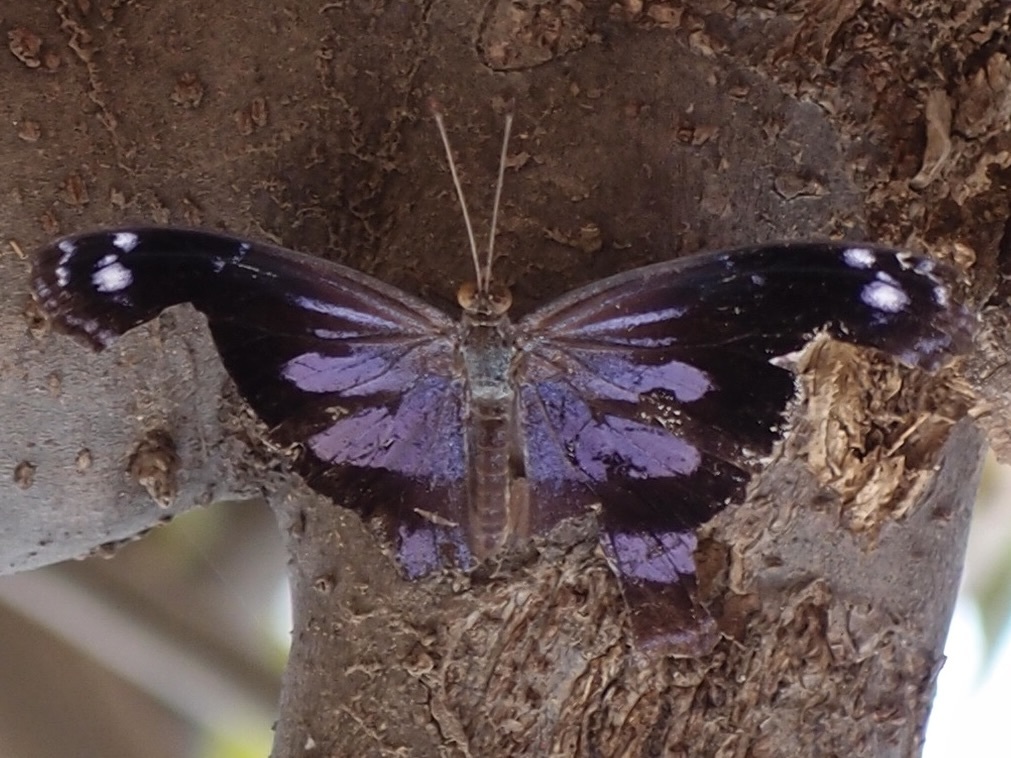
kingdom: Animalia
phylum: Arthropoda
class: Insecta
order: Lepidoptera
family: Nymphalidae
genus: Myscelia
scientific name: Myscelia cyananthe
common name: Blackened bluewing
